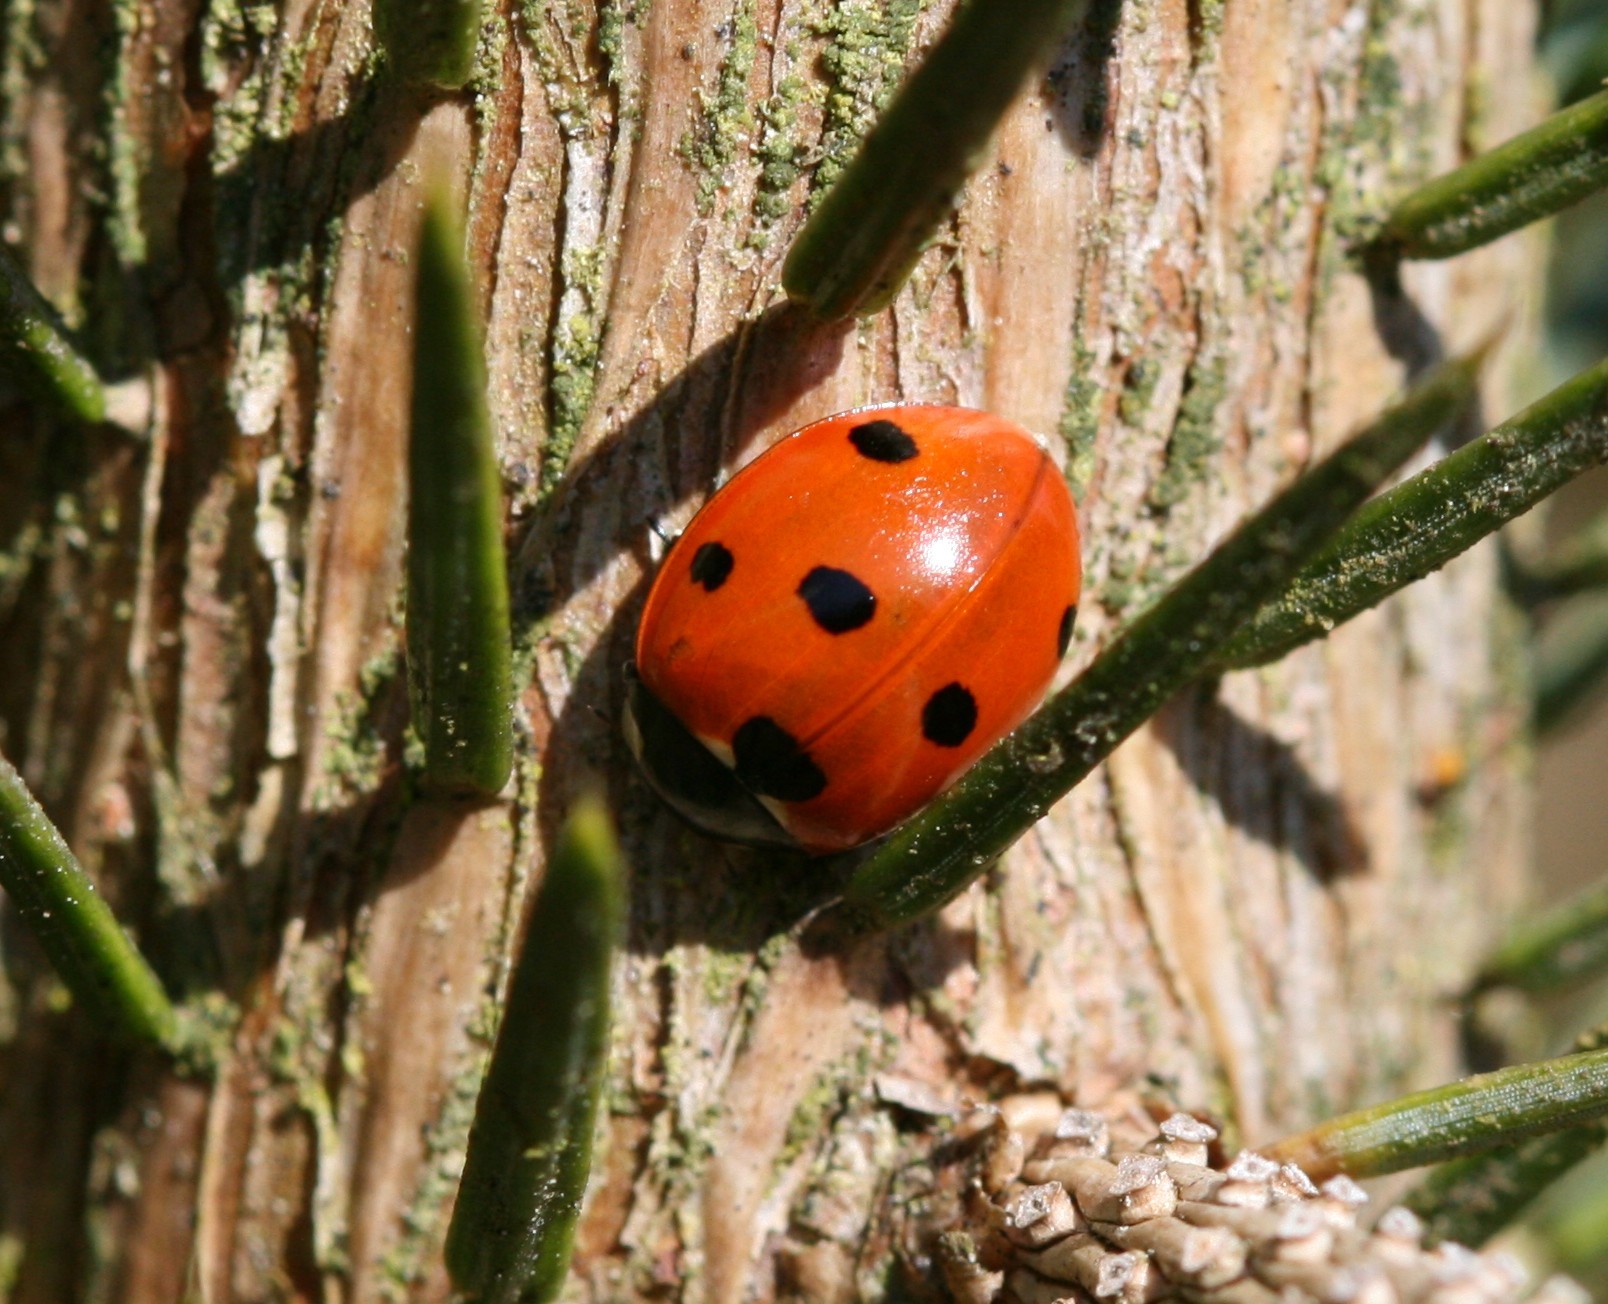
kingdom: Animalia
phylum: Arthropoda
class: Insecta
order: Coleoptera
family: Coccinellidae
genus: Coccinella
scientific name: Coccinella septempunctata
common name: Sevenspotted lady beetle
